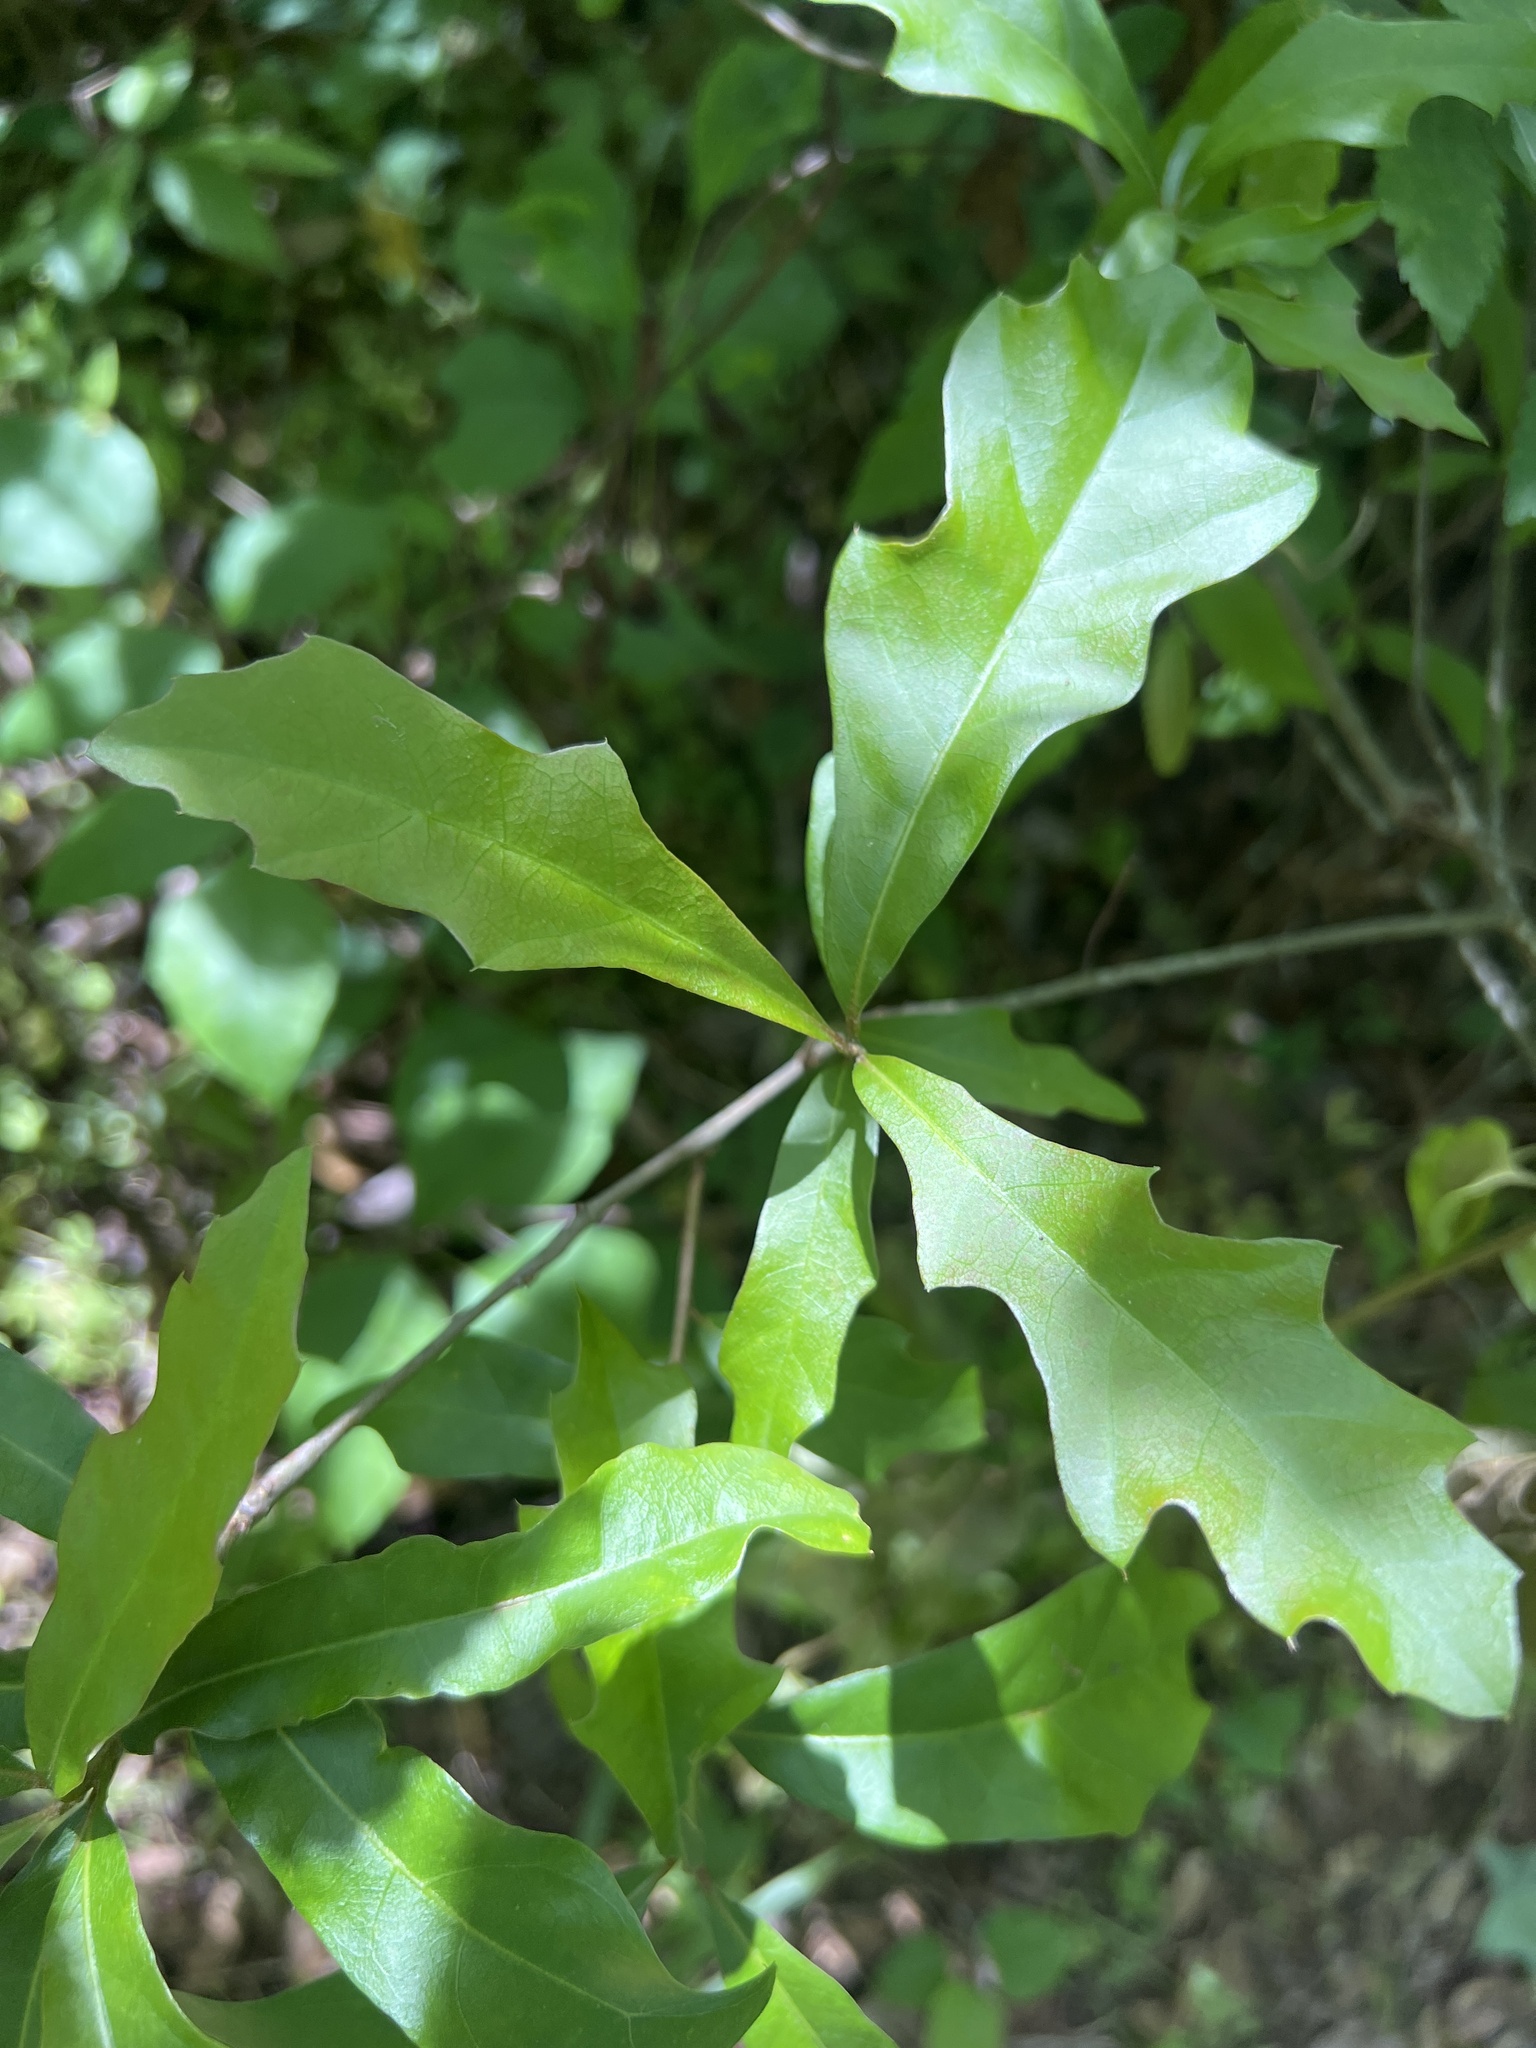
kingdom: Plantae
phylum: Tracheophyta
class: Magnoliopsida
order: Fagales
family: Fagaceae
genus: Quercus
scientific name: Quercus nigra
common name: Water oak
